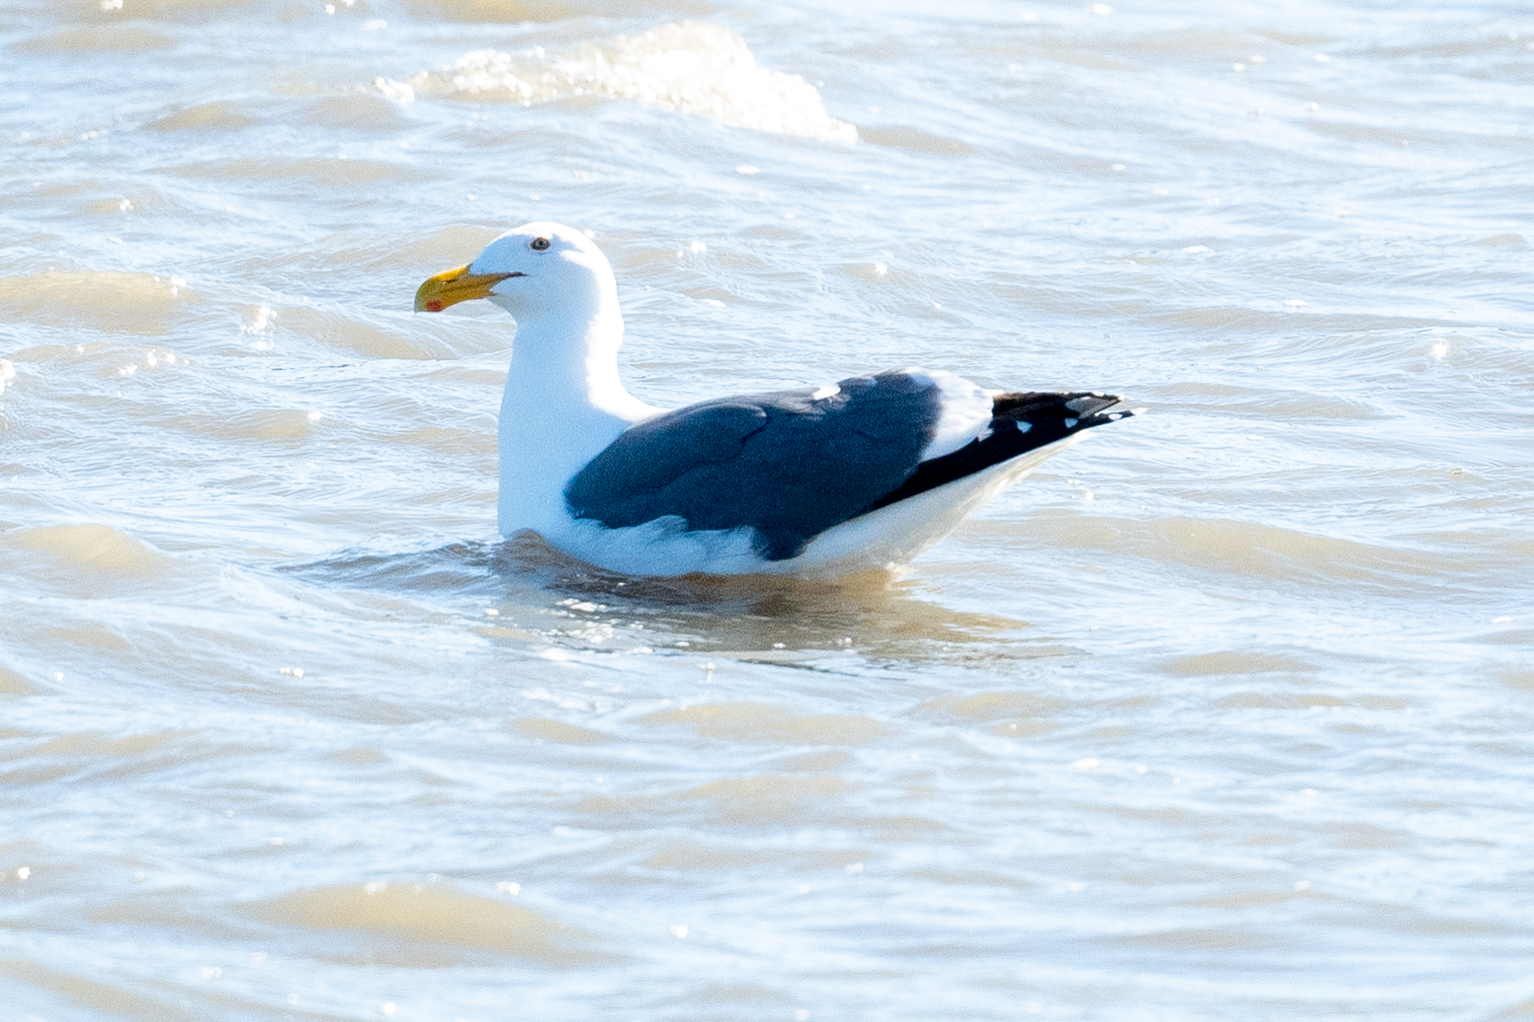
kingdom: Animalia
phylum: Chordata
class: Aves
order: Charadriiformes
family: Laridae
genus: Larus
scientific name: Larus occidentalis
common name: Western gull
